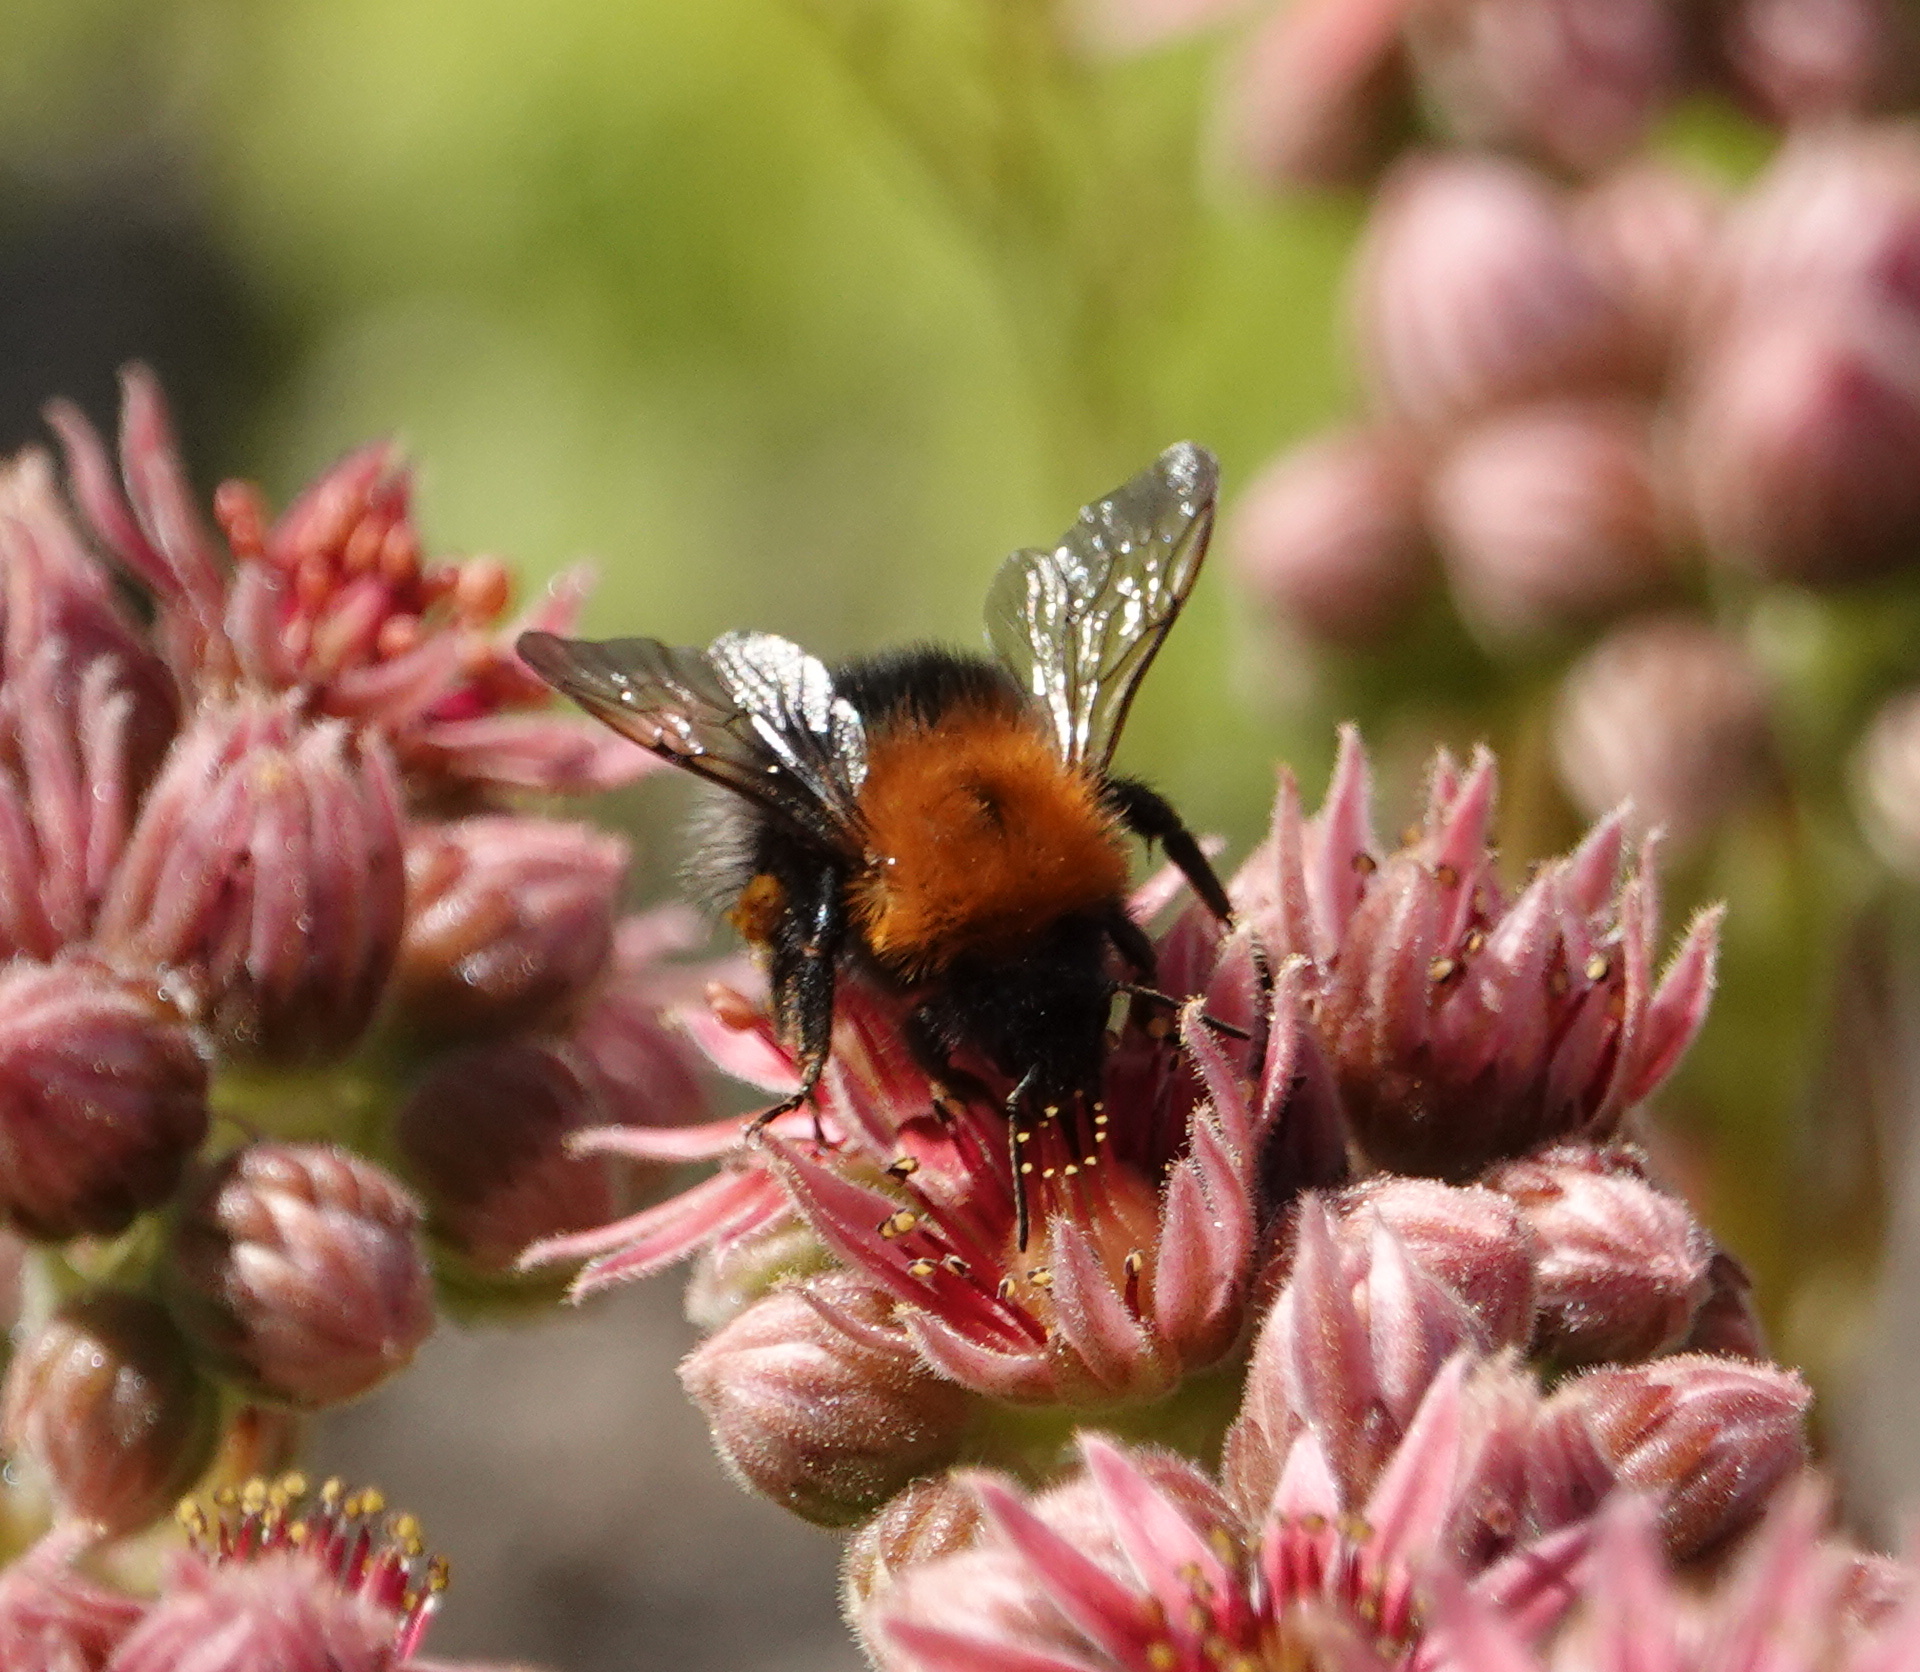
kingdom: Animalia
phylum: Arthropoda
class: Insecta
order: Hymenoptera
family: Apidae
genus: Bombus
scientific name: Bombus hypnorum
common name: New garden bumblebee
